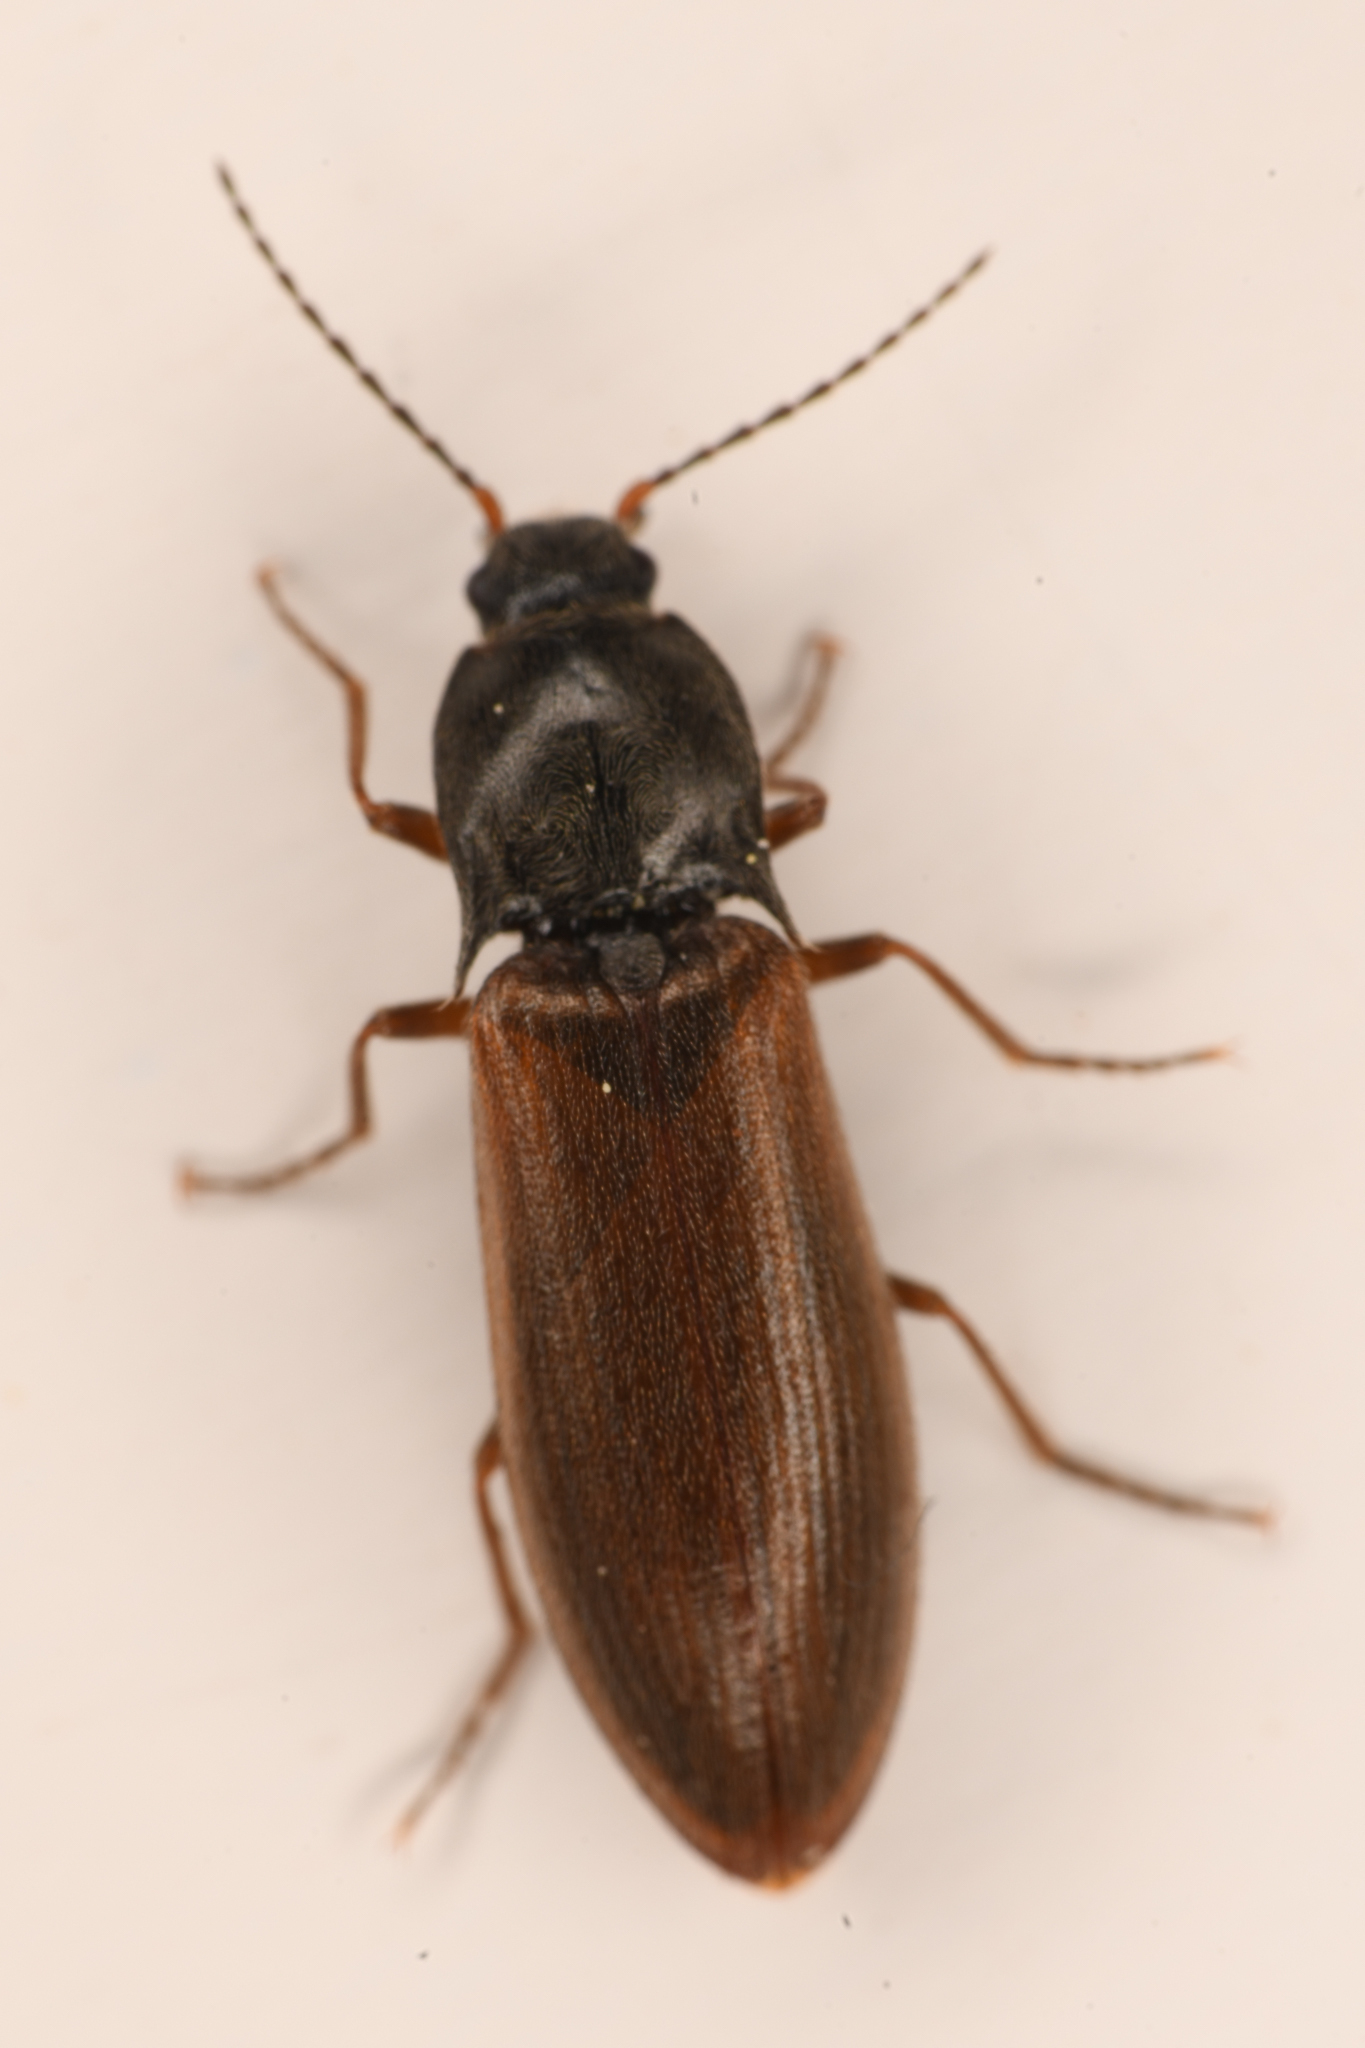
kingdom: Animalia
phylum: Arthropoda
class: Insecta
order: Coleoptera
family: Elateridae
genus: Acteniceromorphus
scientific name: Acteniceromorphus
